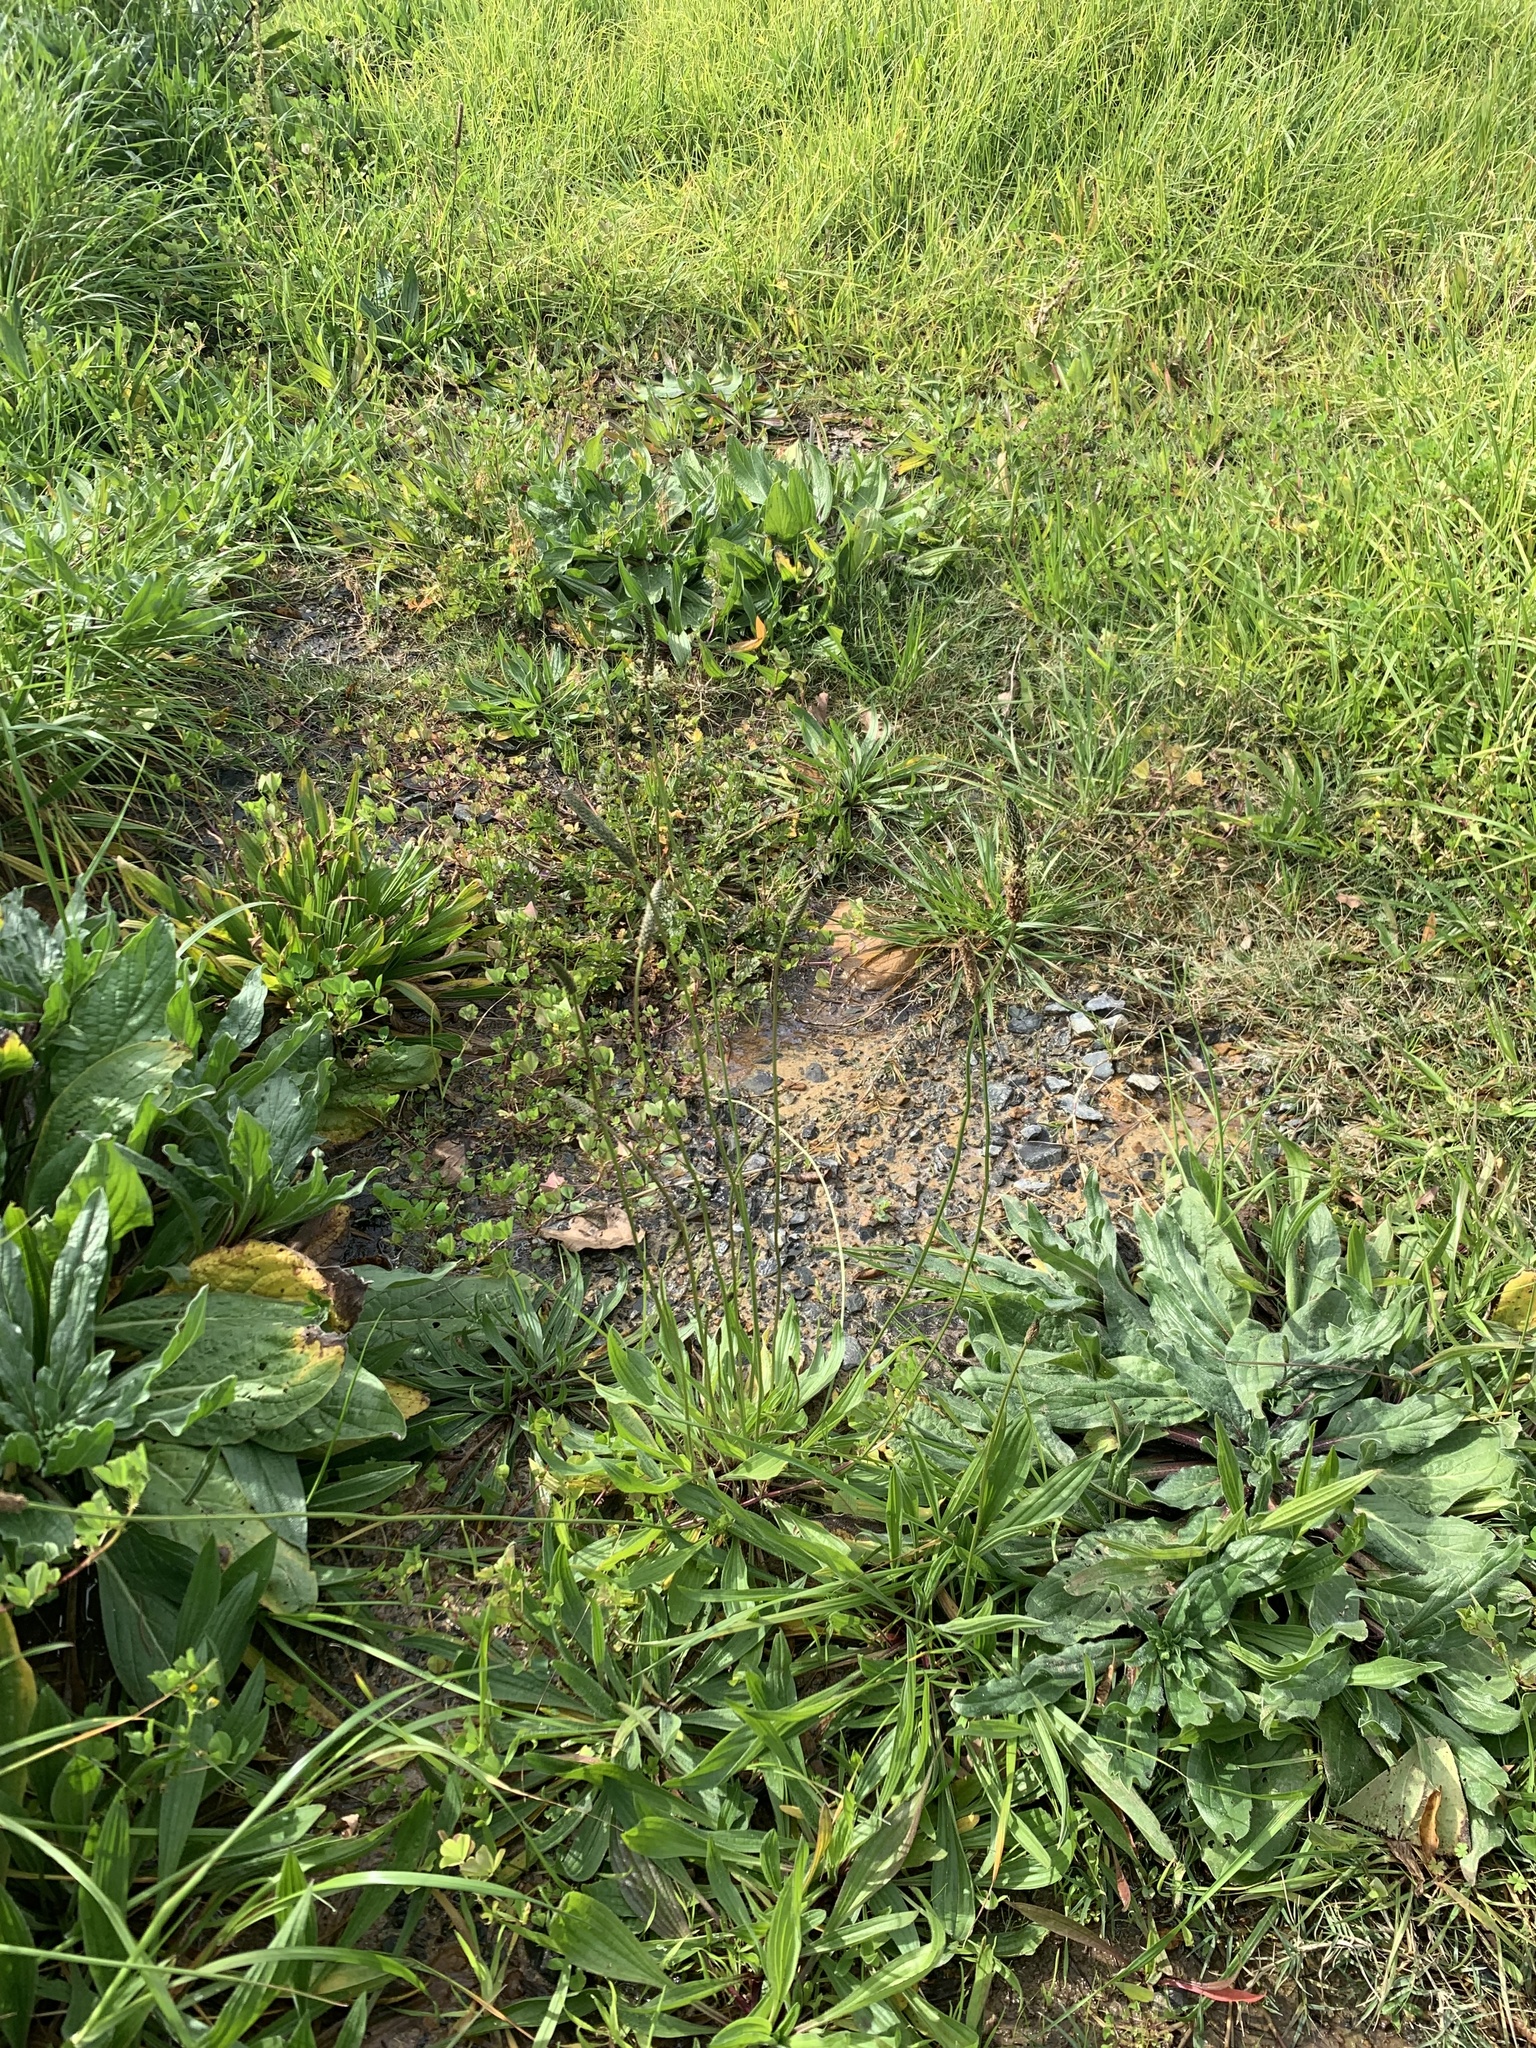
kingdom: Plantae
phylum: Tracheophyta
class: Magnoliopsida
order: Lamiales
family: Plantaginaceae
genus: Plantago
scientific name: Plantago lanceolata
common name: Ribwort plantain
